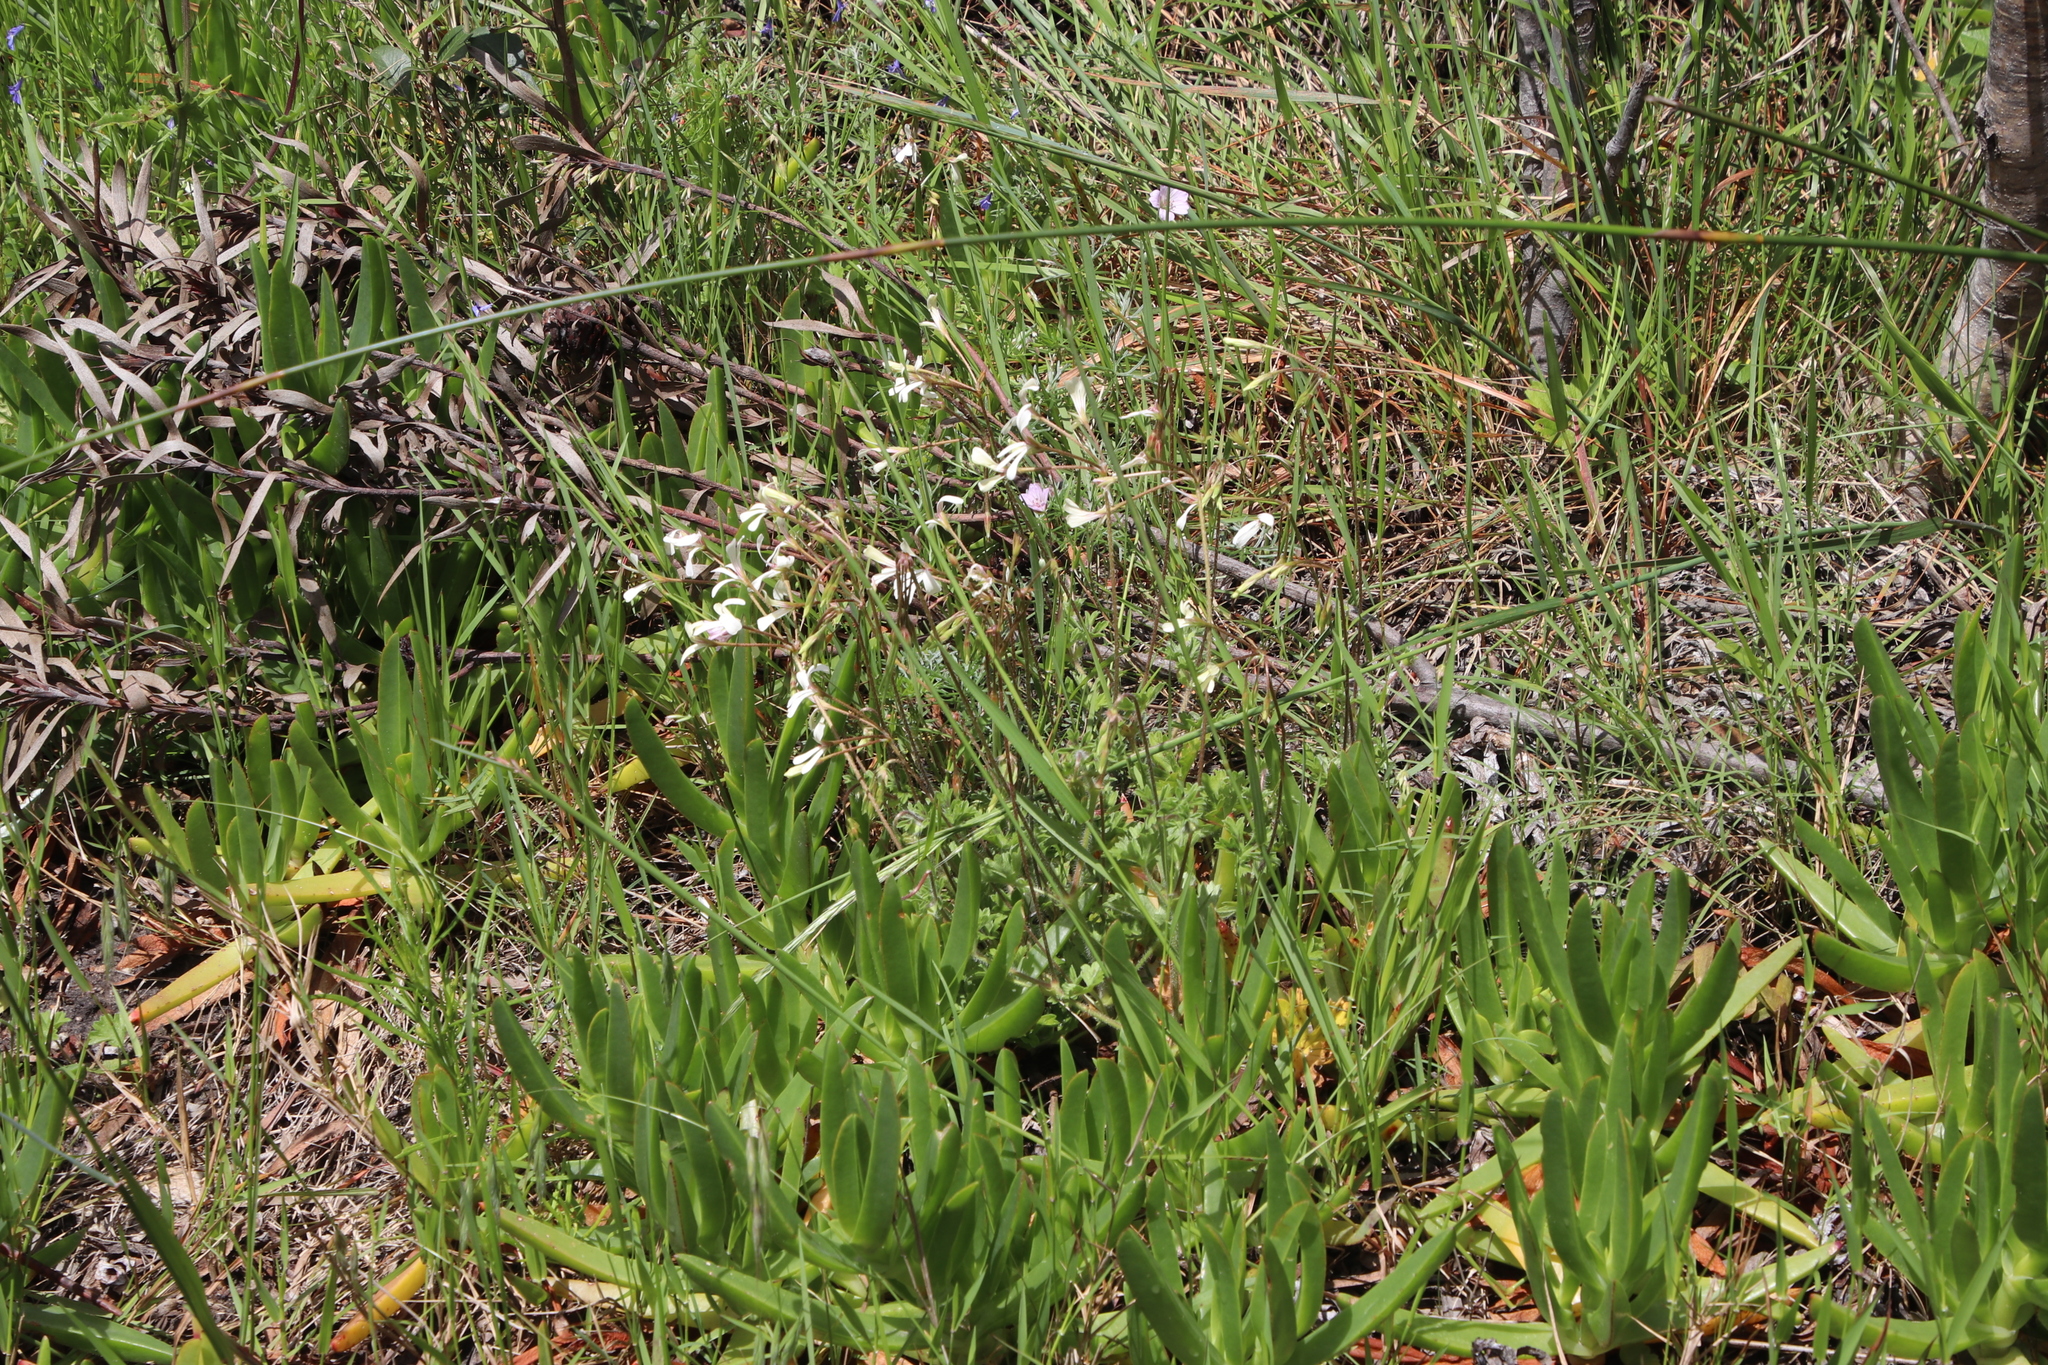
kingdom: Plantae
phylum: Tracheophyta
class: Magnoliopsida
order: Geraniales
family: Geraniaceae
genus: Pelargonium
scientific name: Pelargonium elongatum
